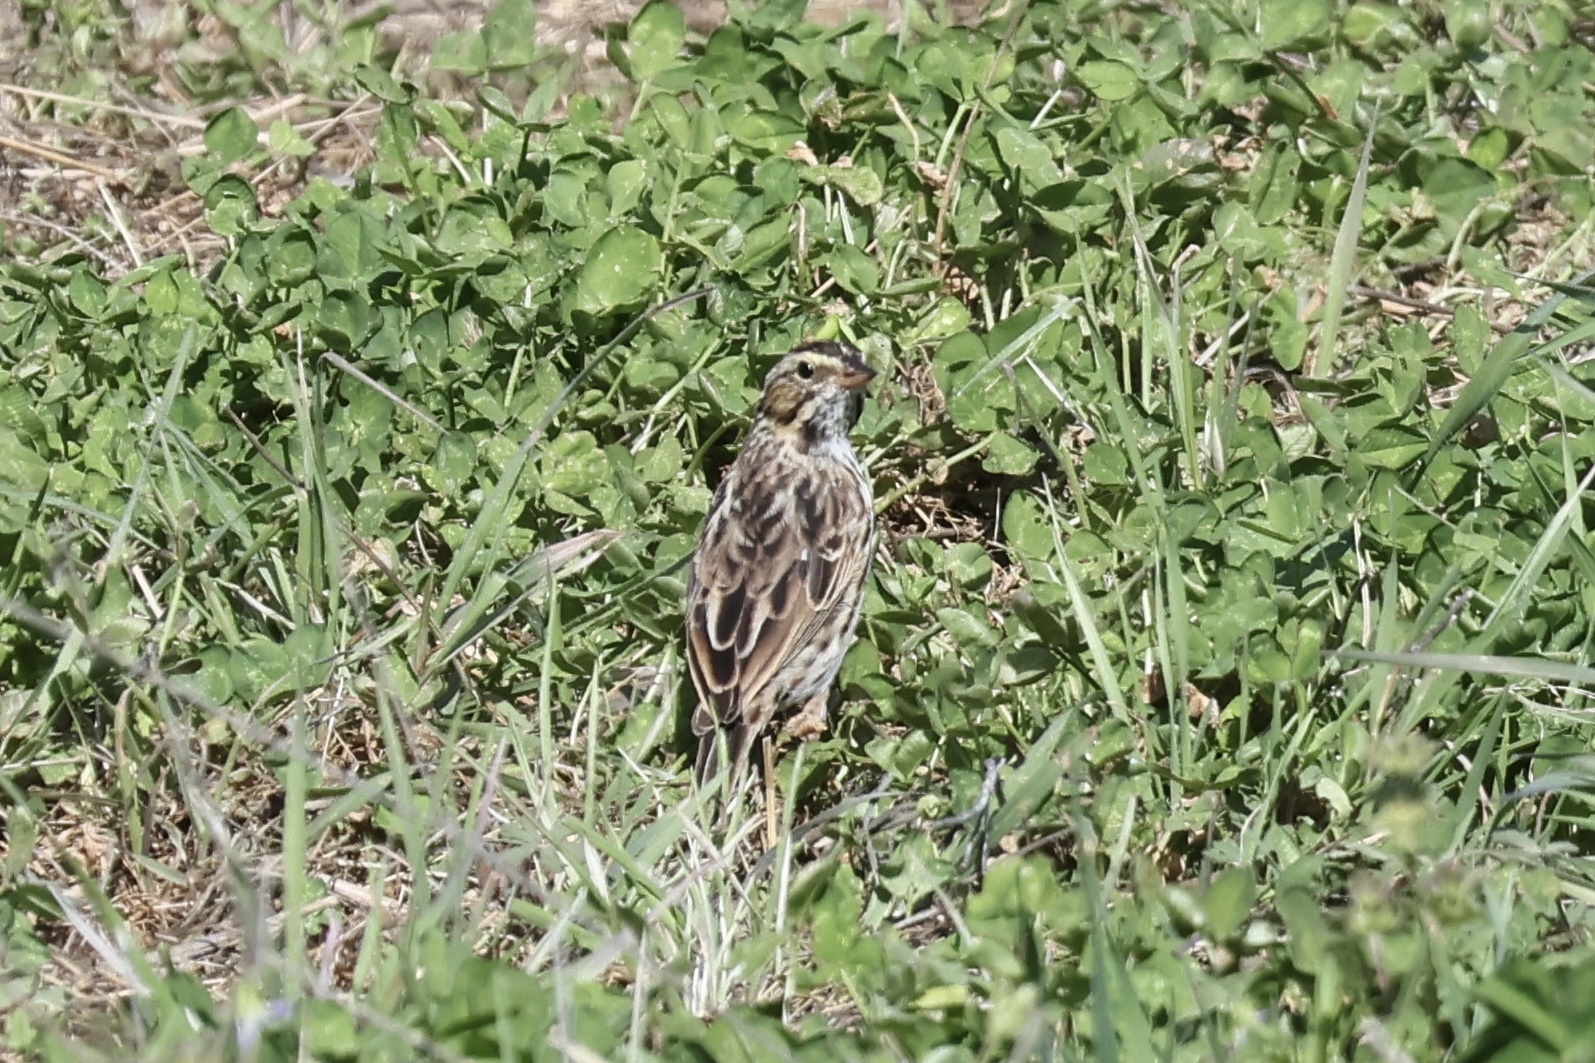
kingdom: Animalia
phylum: Chordata
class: Aves
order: Passeriformes
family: Passerellidae
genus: Passerculus
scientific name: Passerculus sandwichensis
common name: Savannah sparrow
